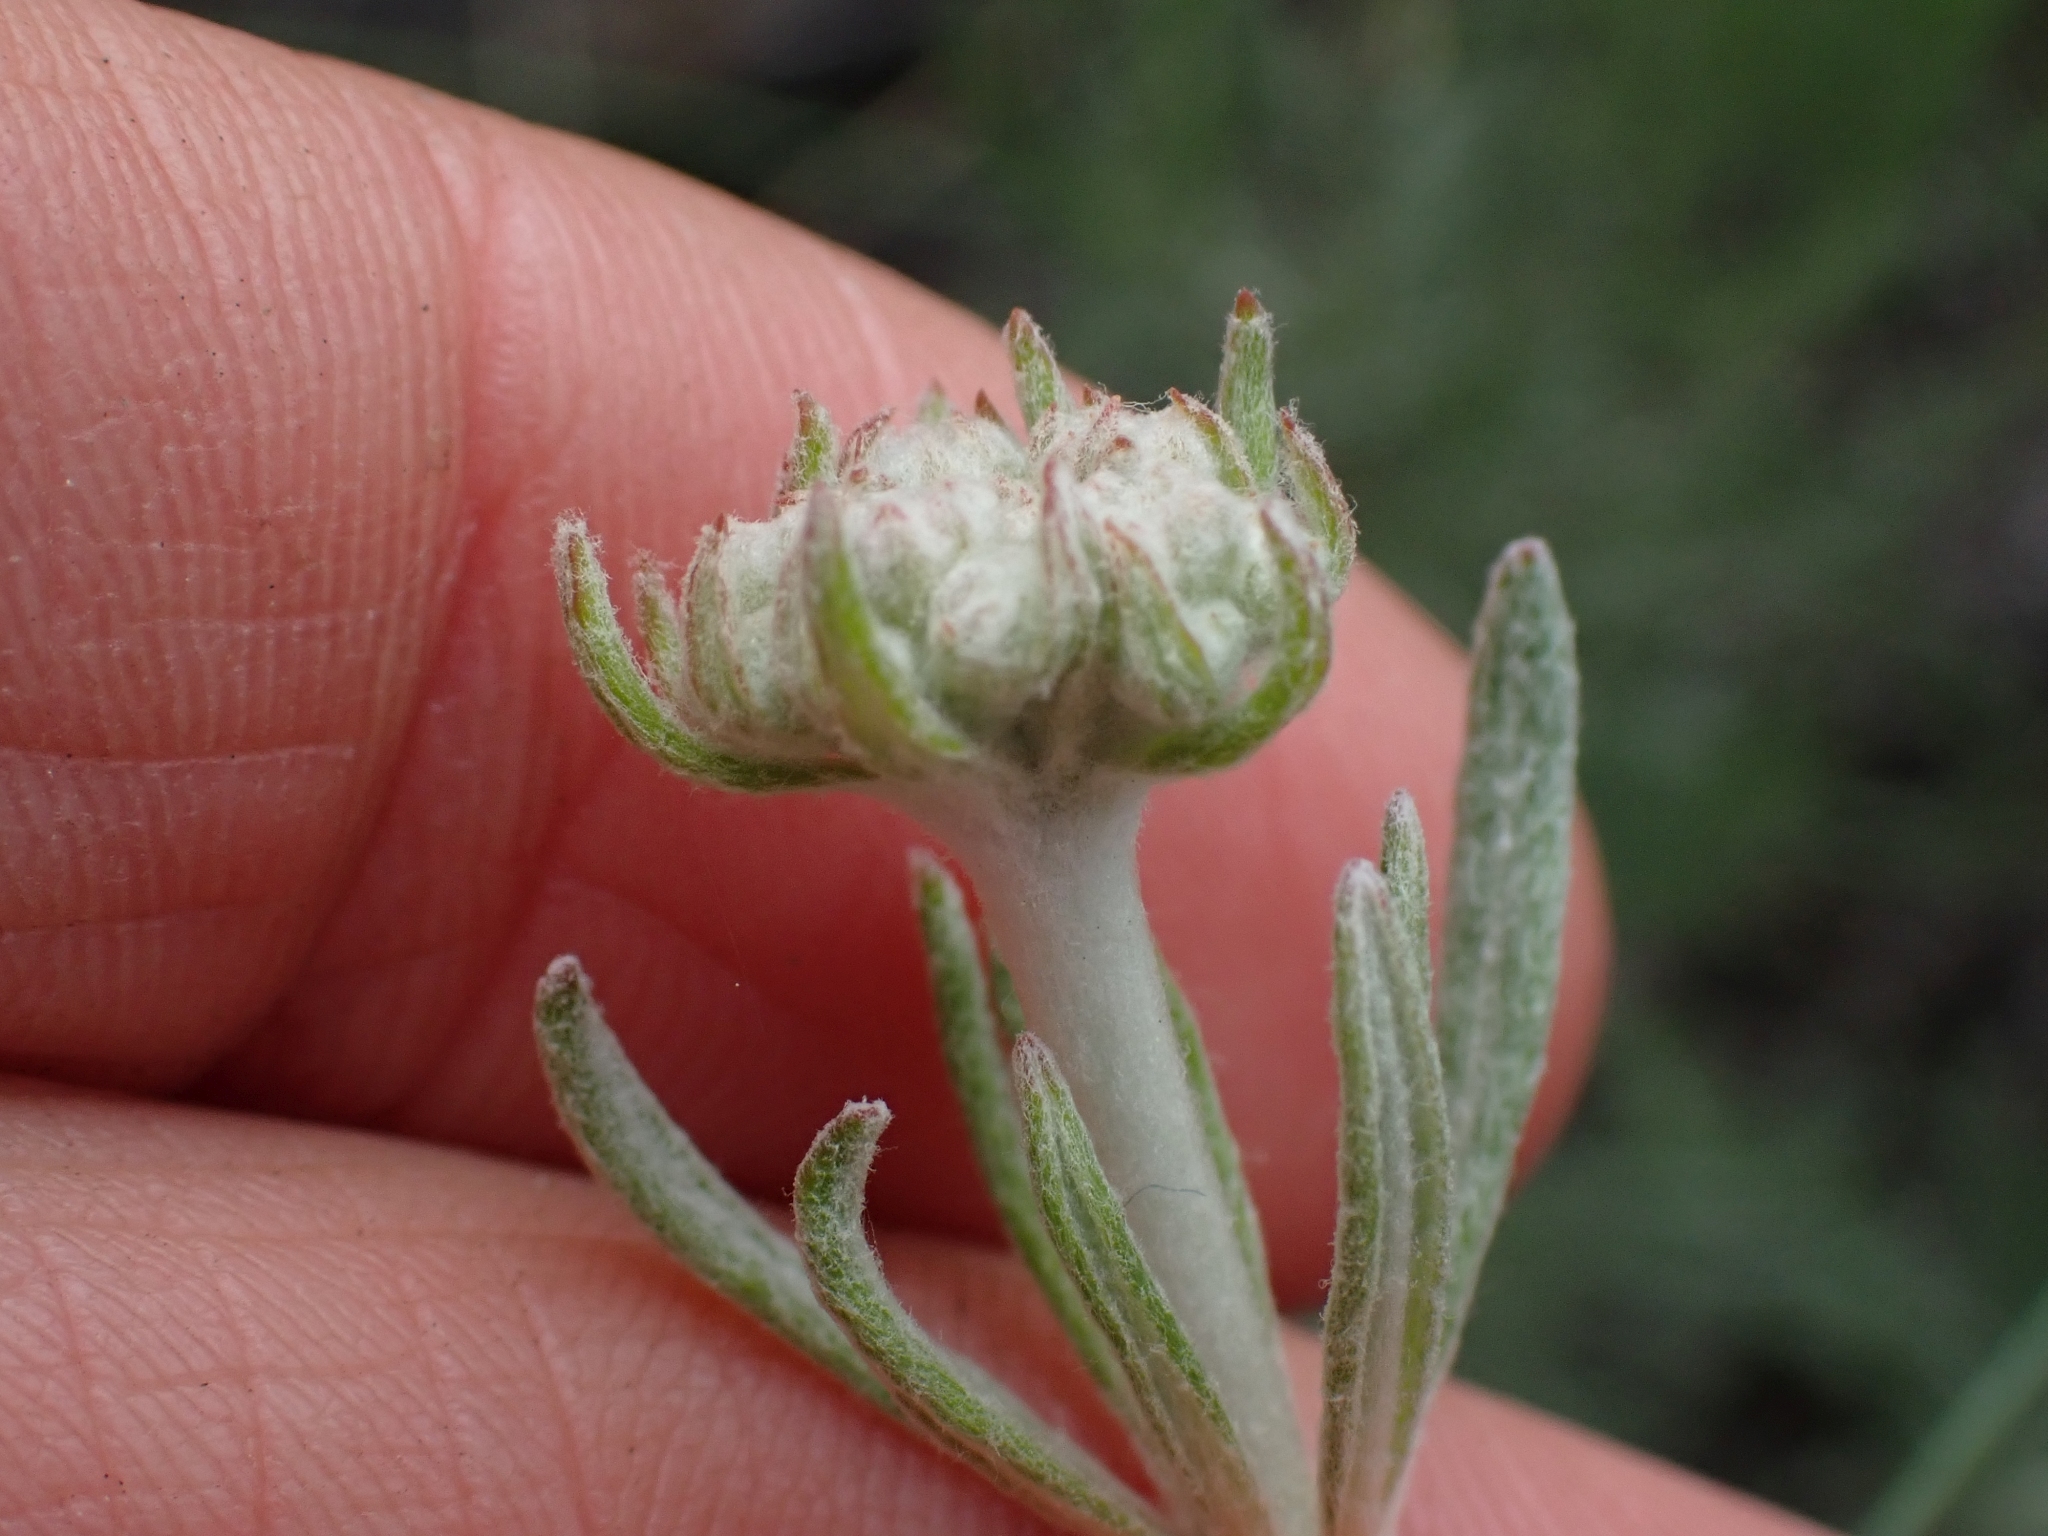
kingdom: Plantae
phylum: Tracheophyta
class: Magnoliopsida
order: Caryophyllales
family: Polygonaceae
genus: Eriogonum
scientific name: Eriogonum heracleoides
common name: Wyeth's buckwheat
